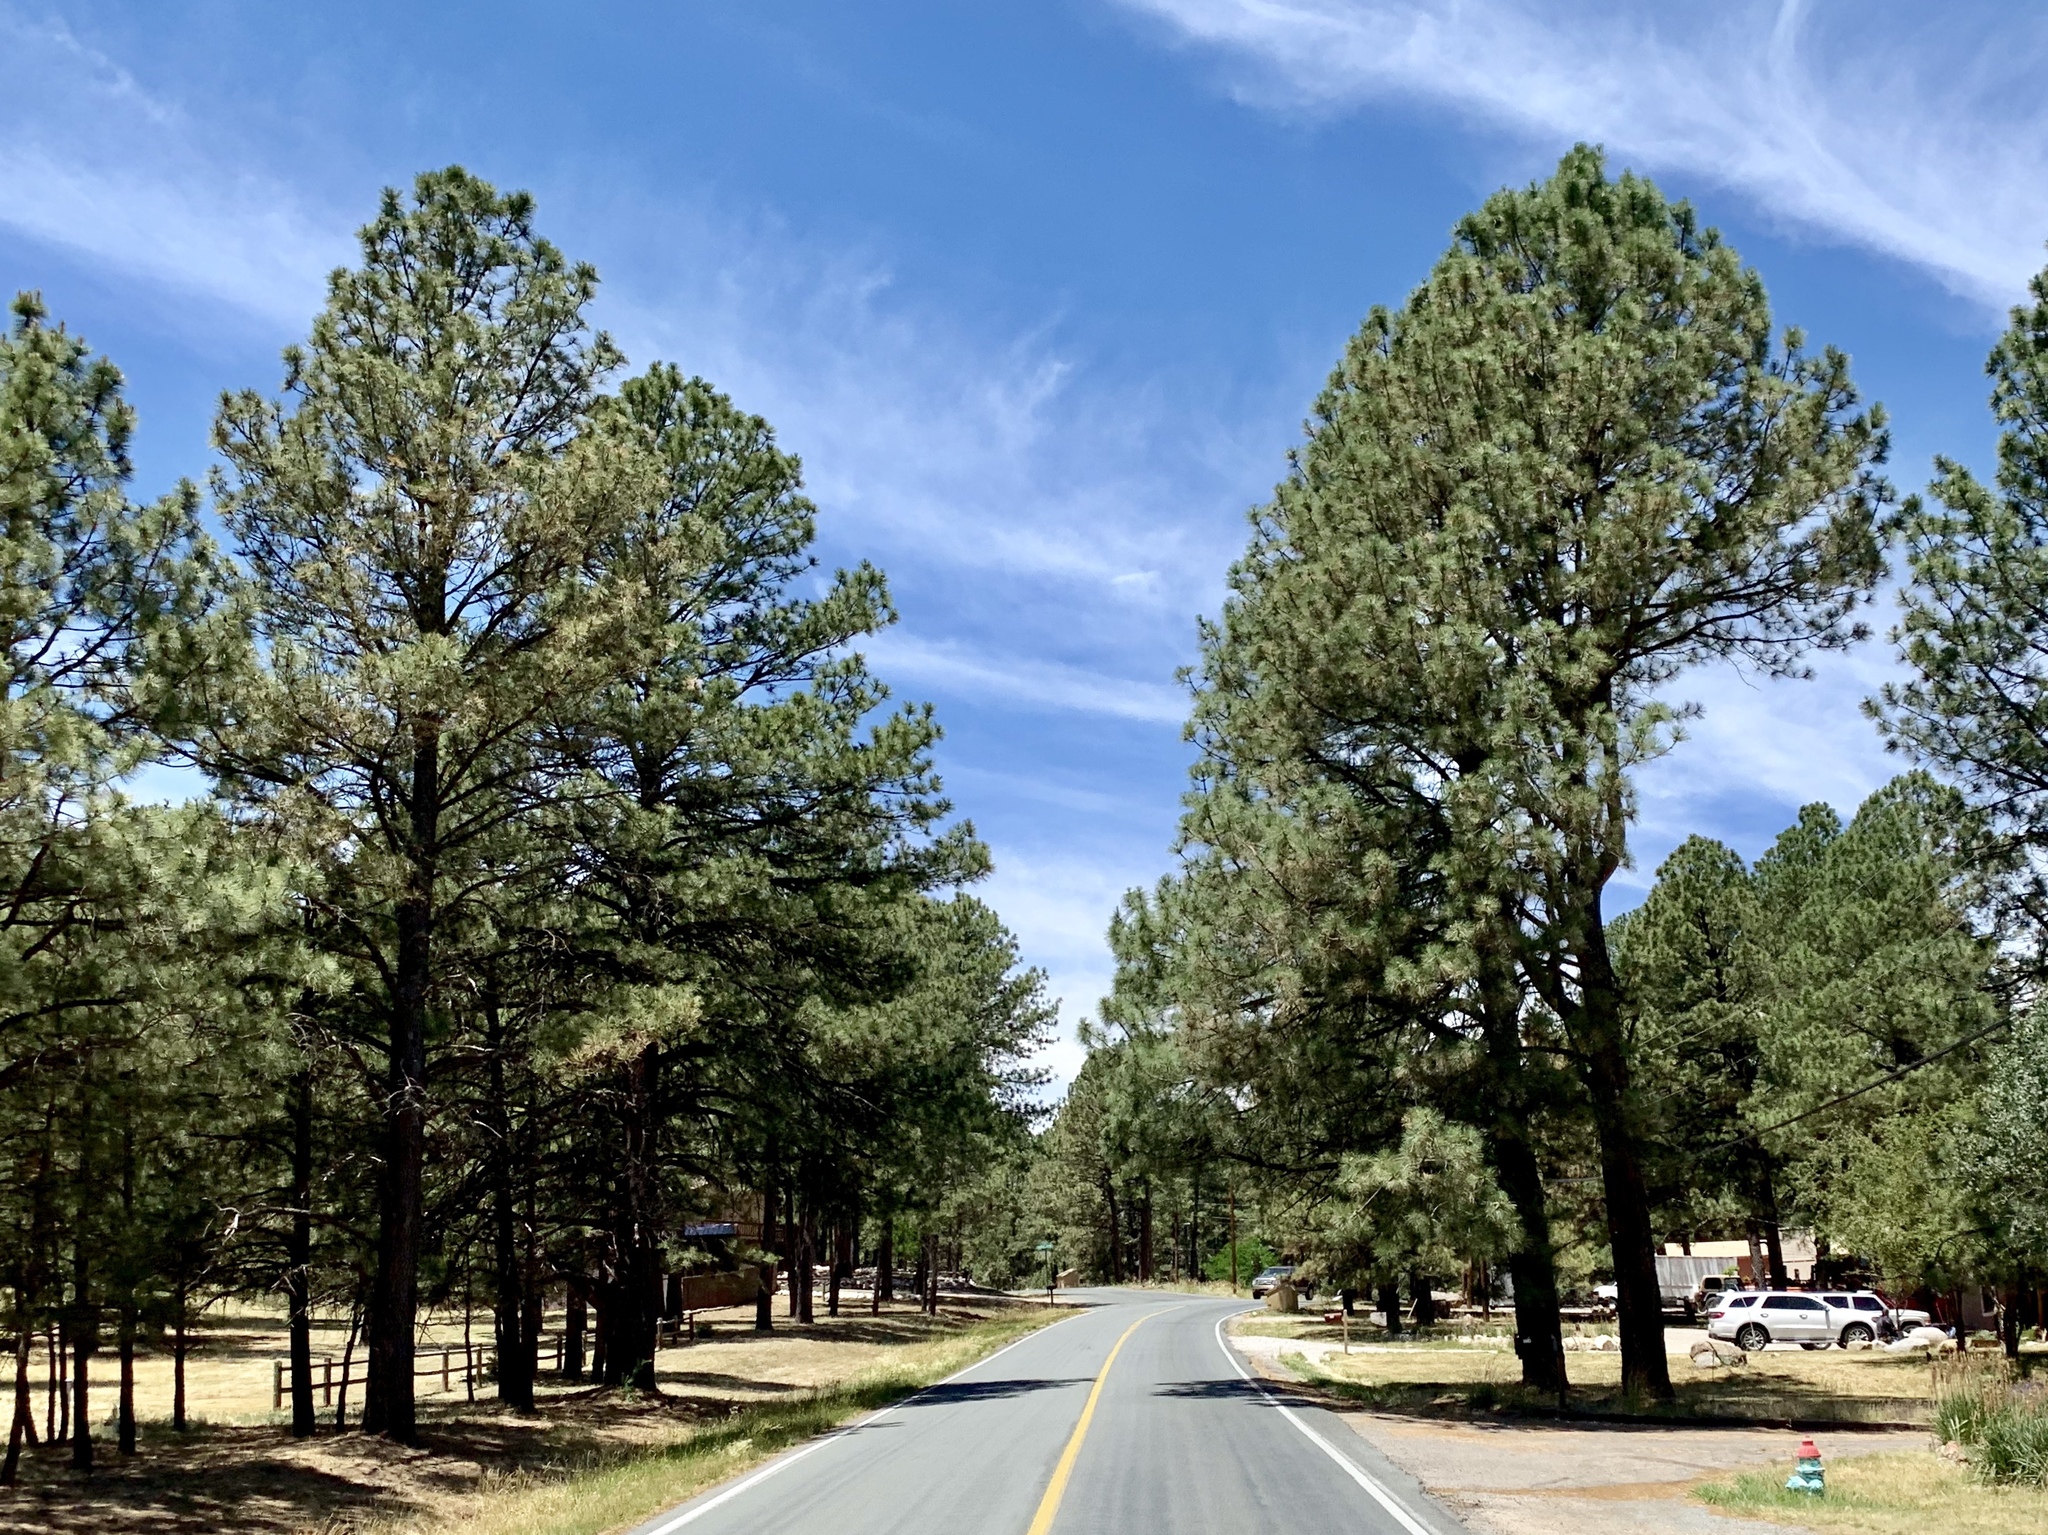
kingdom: Plantae
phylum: Tracheophyta
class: Pinopsida
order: Pinales
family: Pinaceae
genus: Pinus
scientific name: Pinus ponderosa
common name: Western yellow-pine
